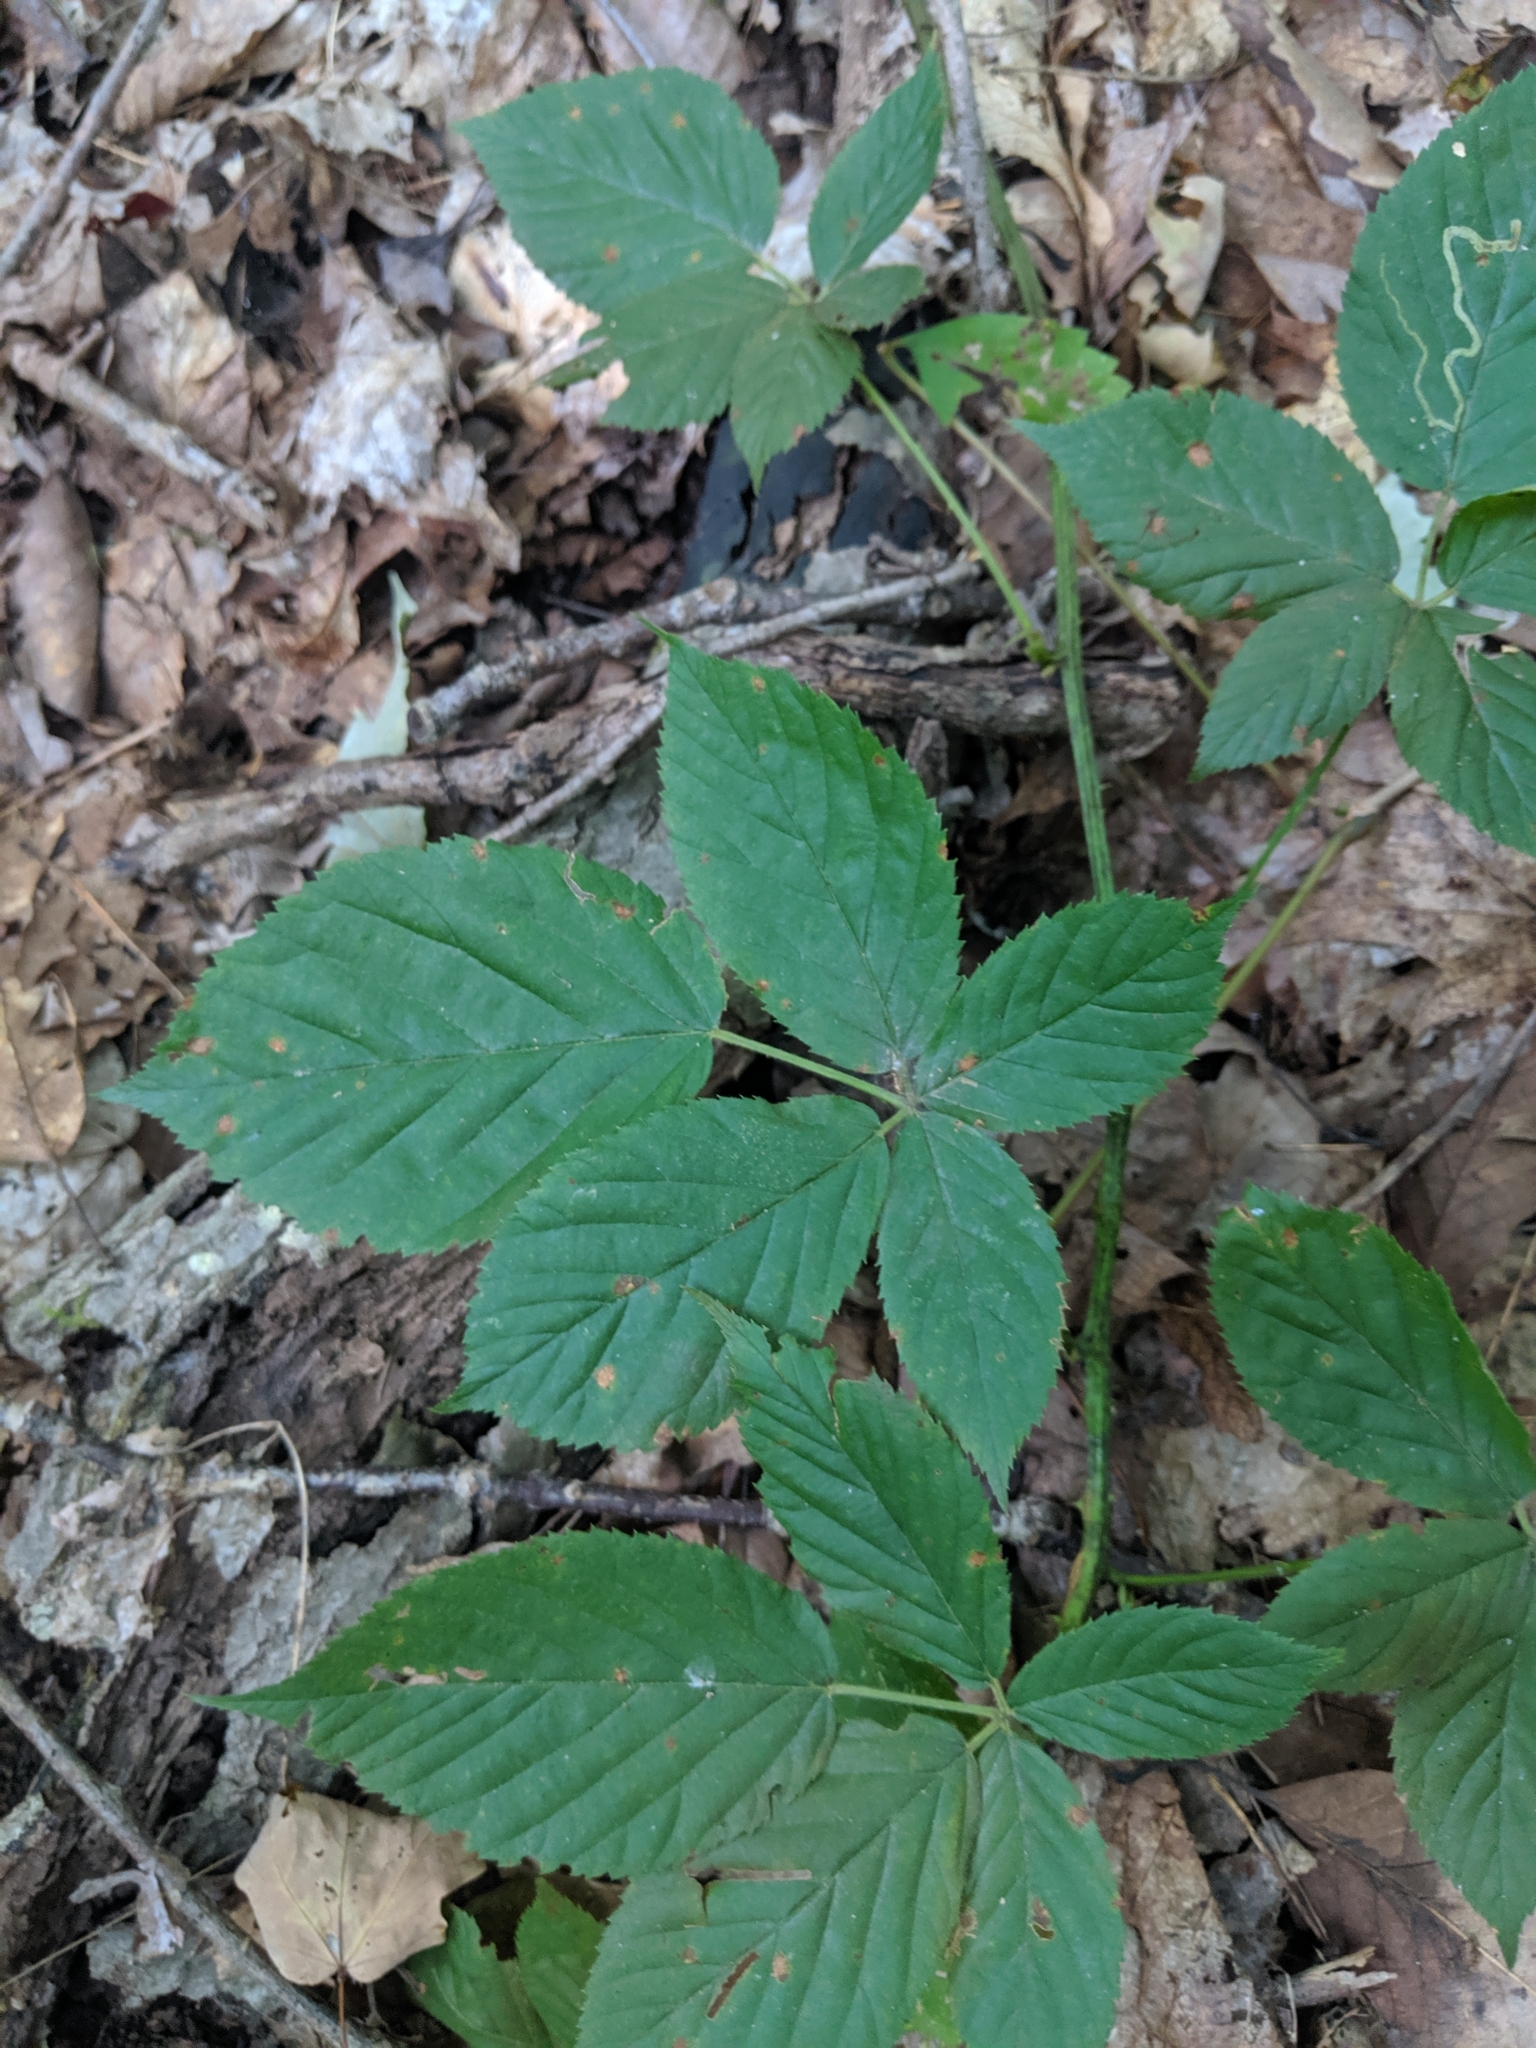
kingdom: Plantae
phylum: Tracheophyta
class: Magnoliopsida
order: Rosales
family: Rosaceae
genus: Rubus
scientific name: Rubus allegheniensis
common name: Allegheny blackberry
